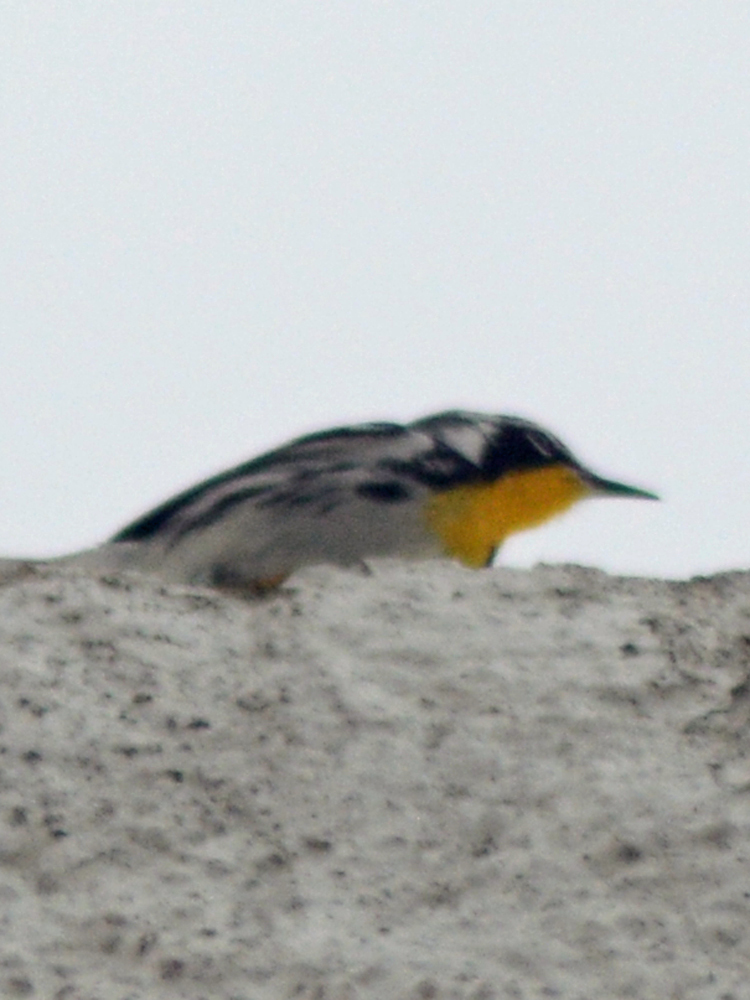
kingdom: Animalia
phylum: Chordata
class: Aves
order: Passeriformes
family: Parulidae
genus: Setophaga
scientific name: Setophaga dominica
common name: Yellow-throated warbler
